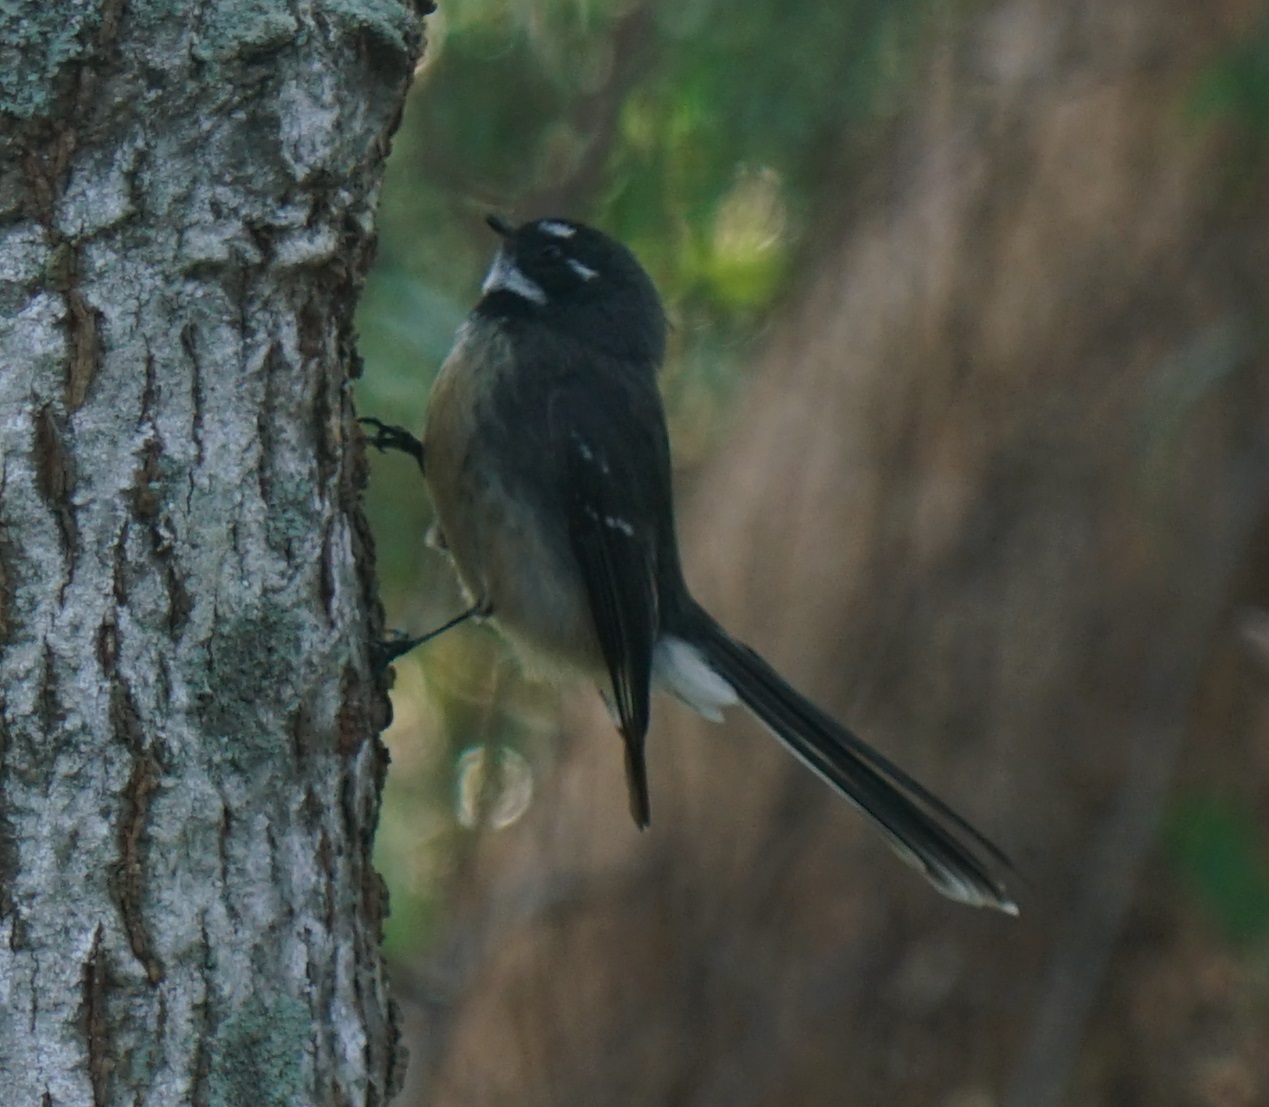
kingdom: Animalia
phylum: Chordata
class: Aves
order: Passeriformes
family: Rhipiduridae
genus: Rhipidura
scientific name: Rhipidura albiscapa
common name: Grey fantail
